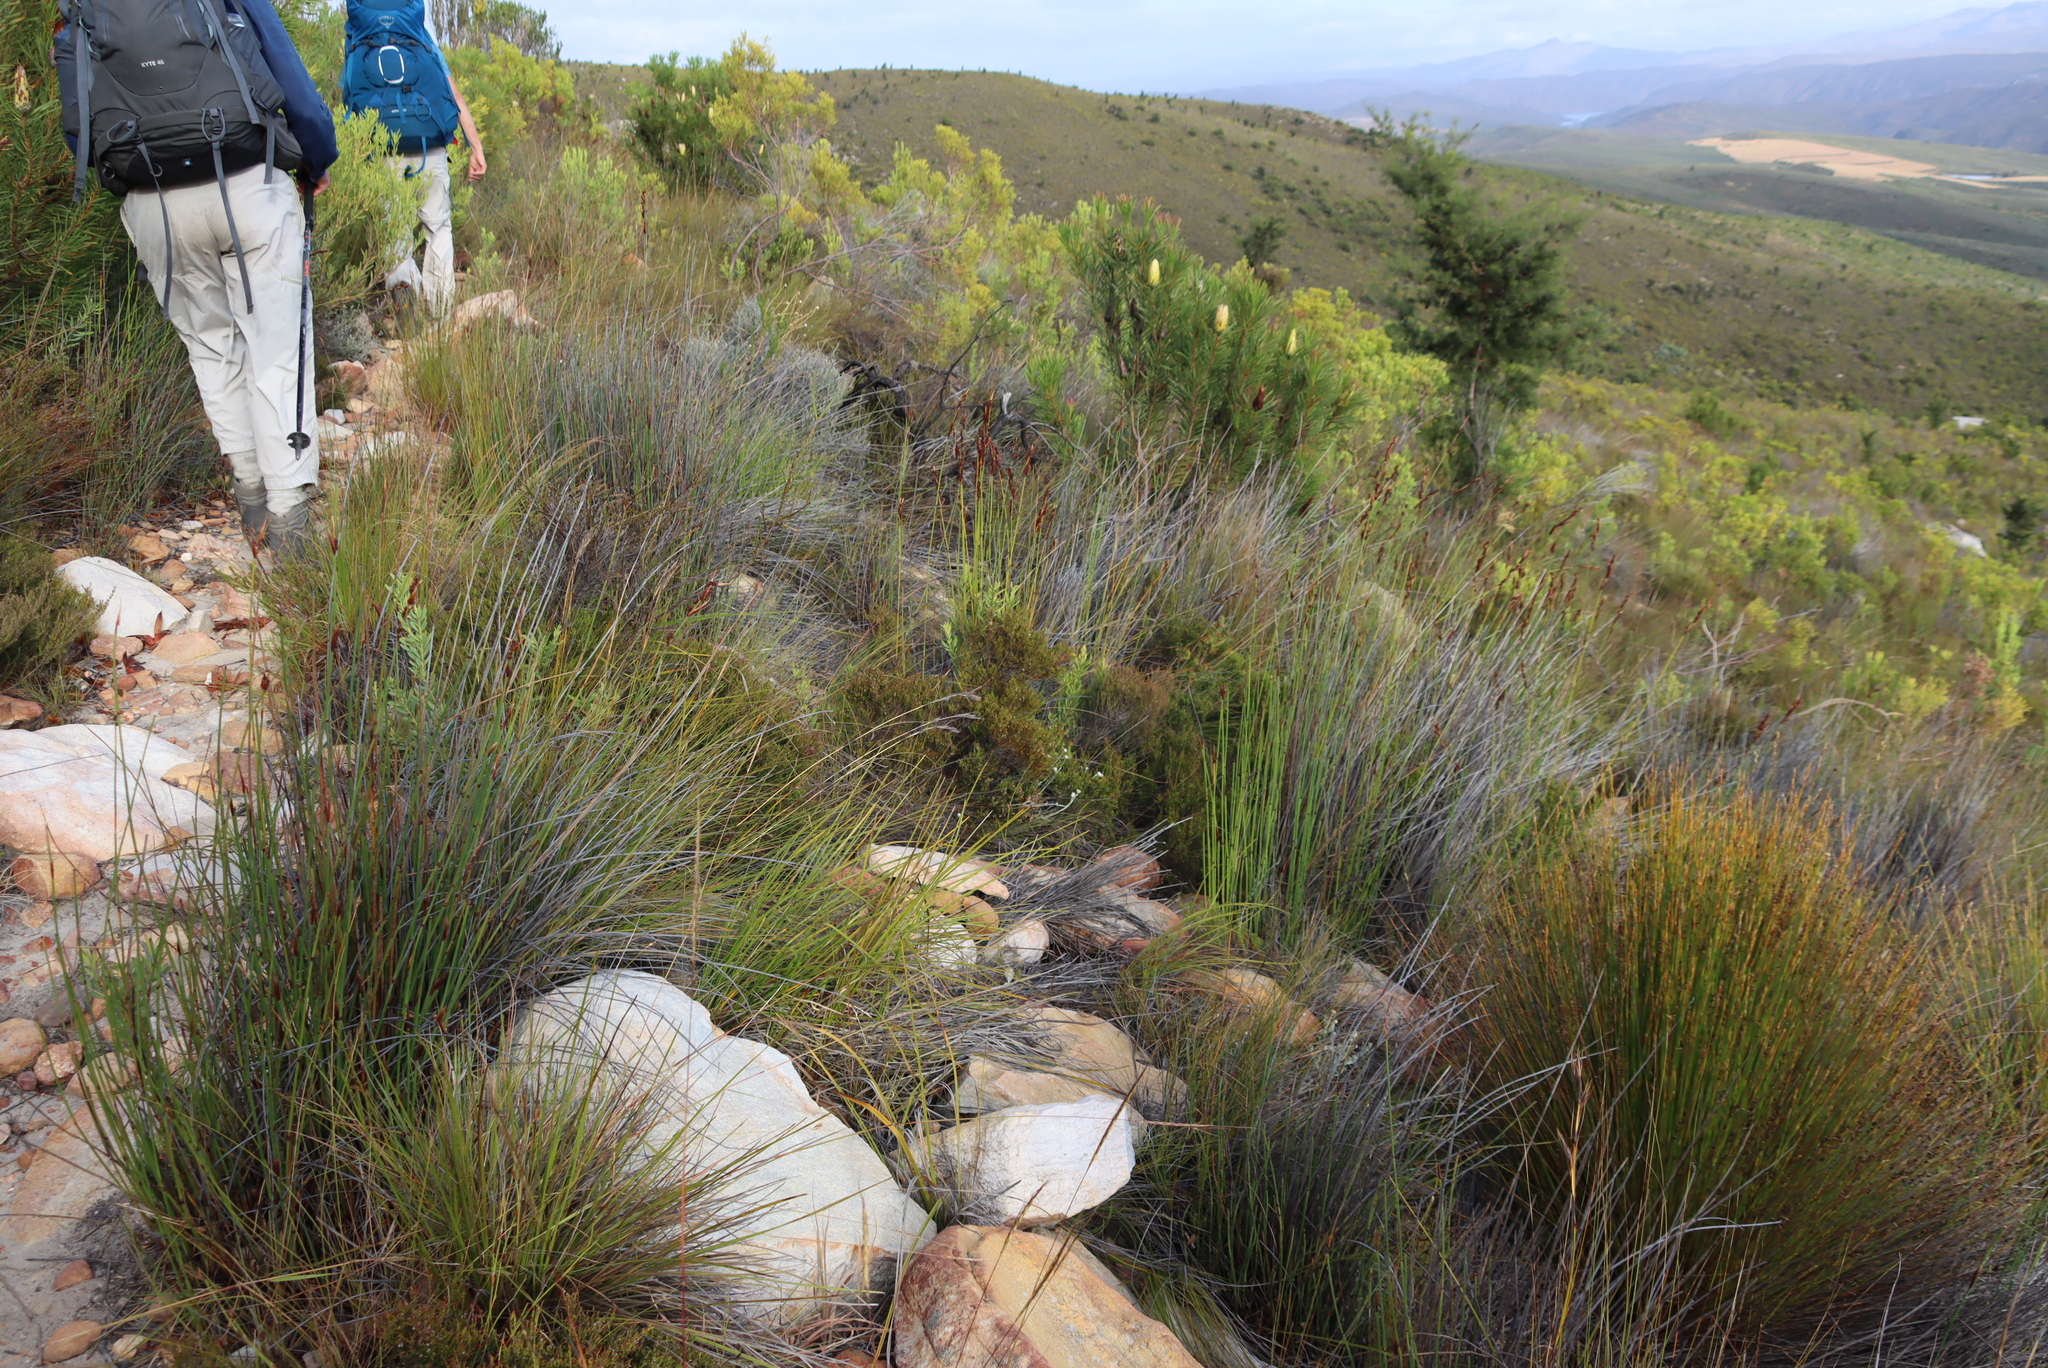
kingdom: Plantae
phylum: Tracheophyta
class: Magnoliopsida
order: Proteales
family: Proteaceae
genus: Hakea
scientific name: Hakea sericea
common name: Needle bush
